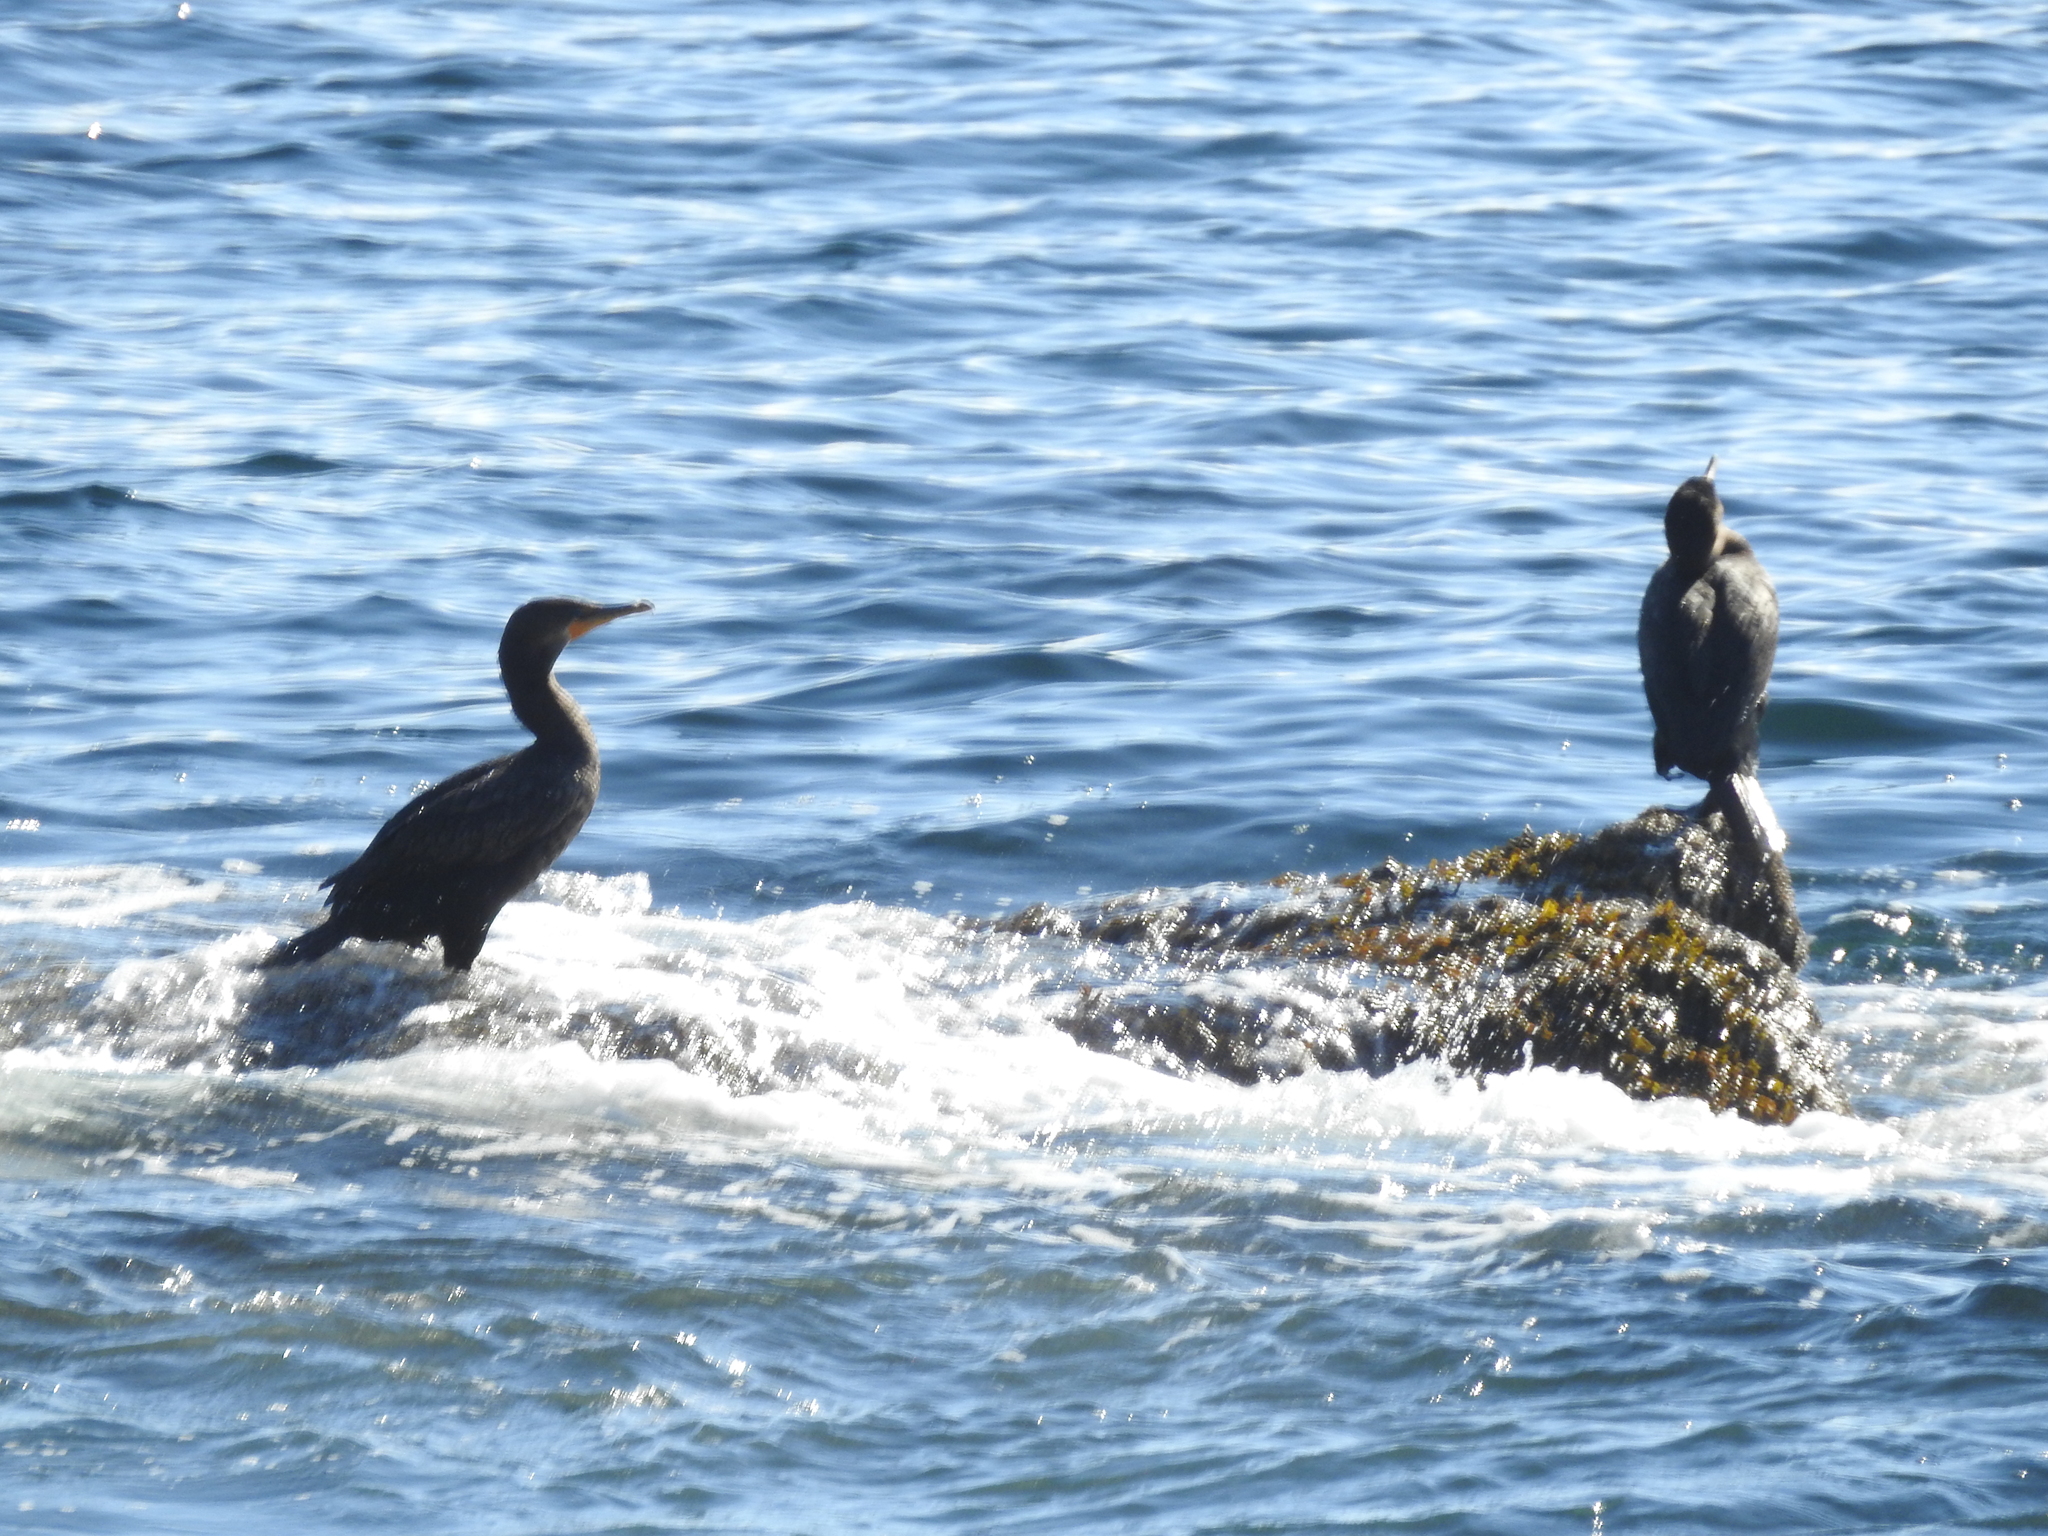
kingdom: Animalia
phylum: Chordata
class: Aves
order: Suliformes
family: Phalacrocoracidae
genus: Phalacrocorax
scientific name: Phalacrocorax auritus
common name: Double-crested cormorant
